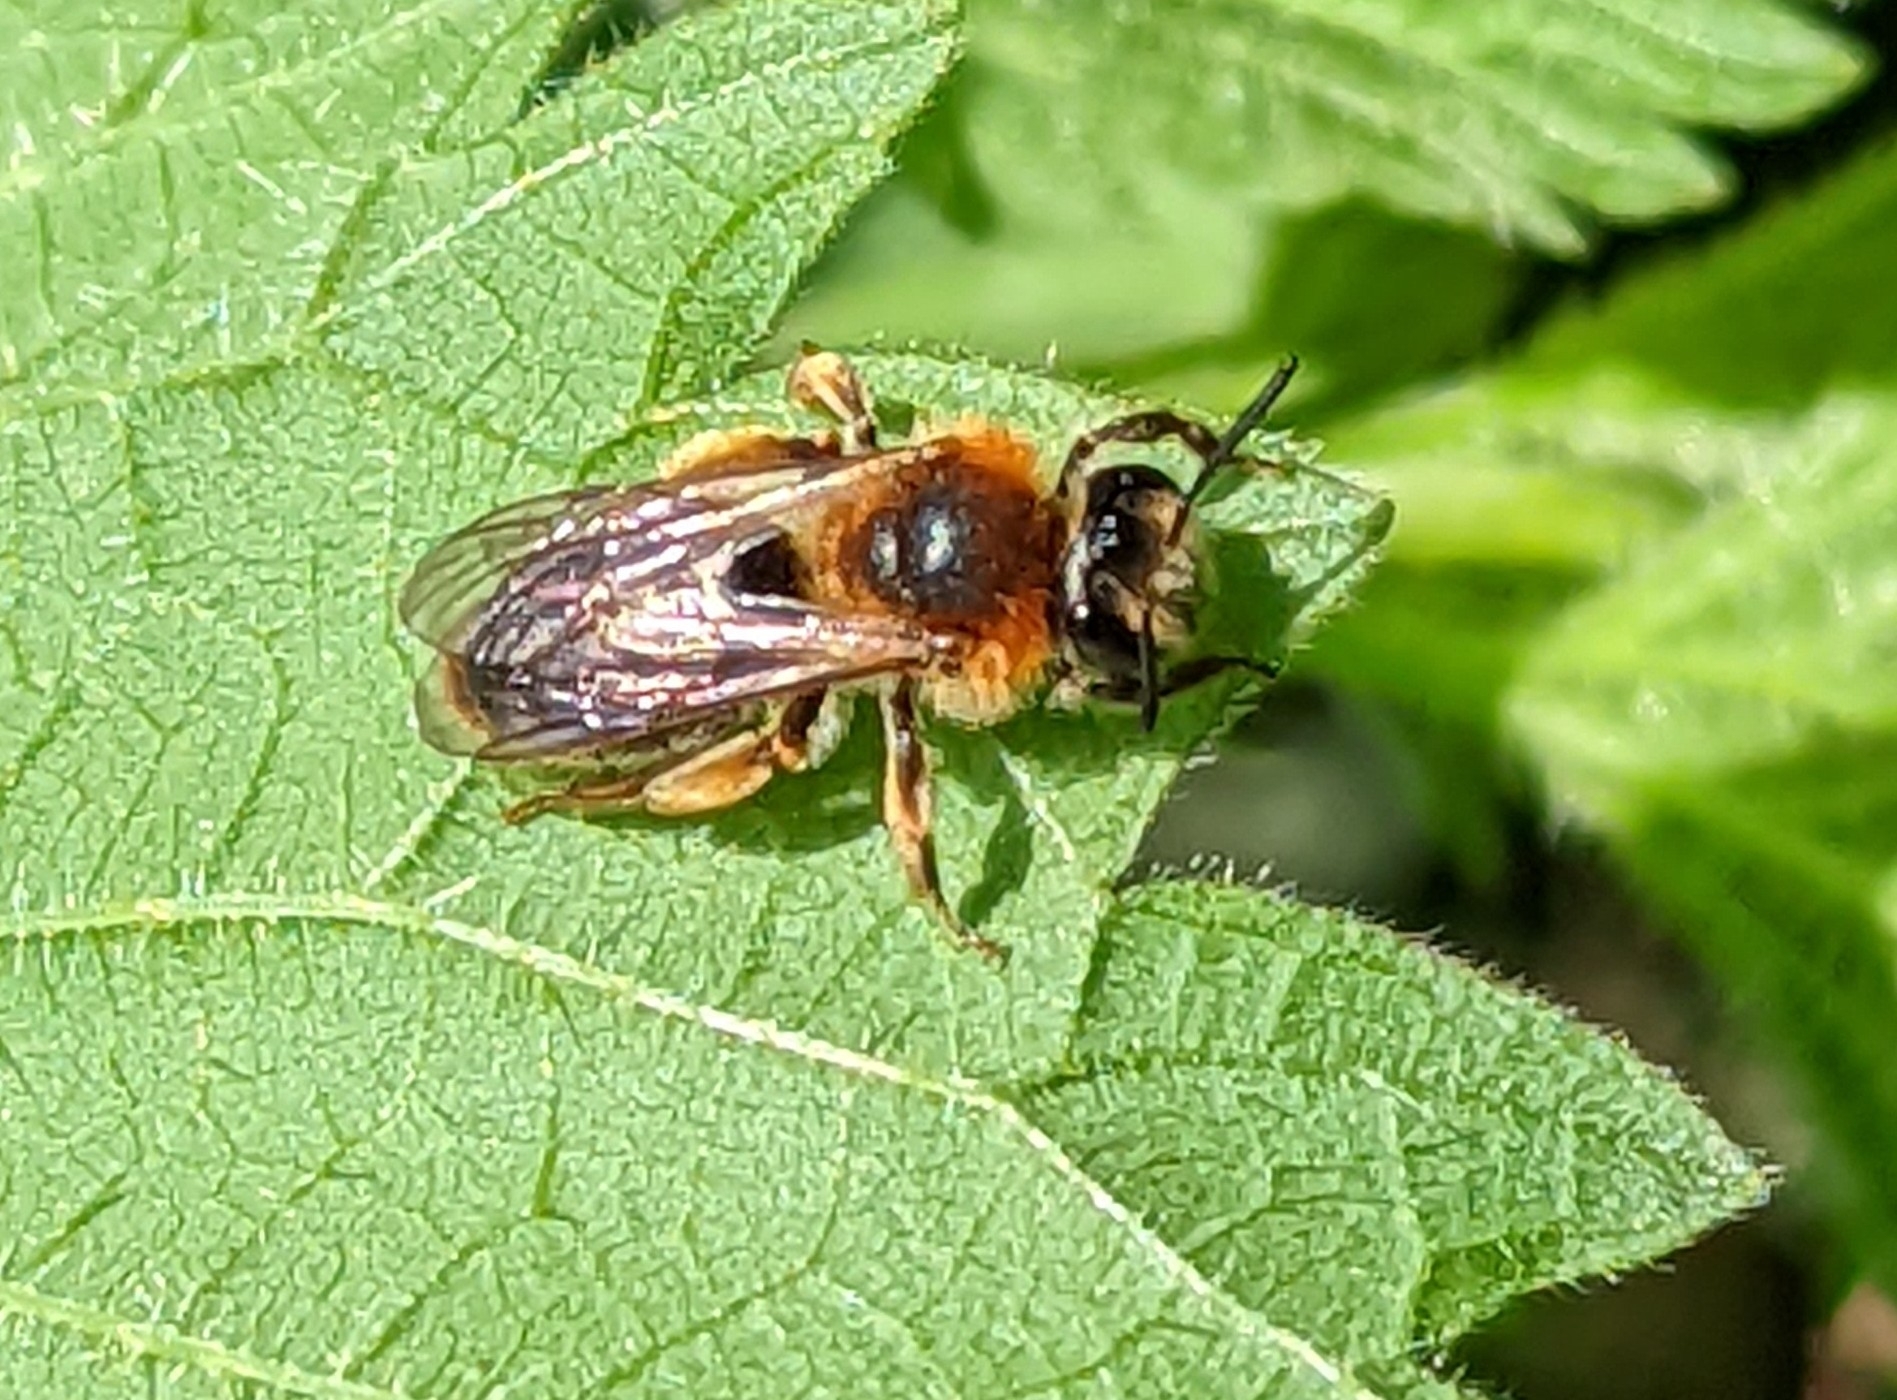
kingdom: Animalia
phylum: Arthropoda
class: Insecta
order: Hymenoptera
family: Andrenidae
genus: Andrena
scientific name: Andrena haemorrhoa
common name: Early mining bee
